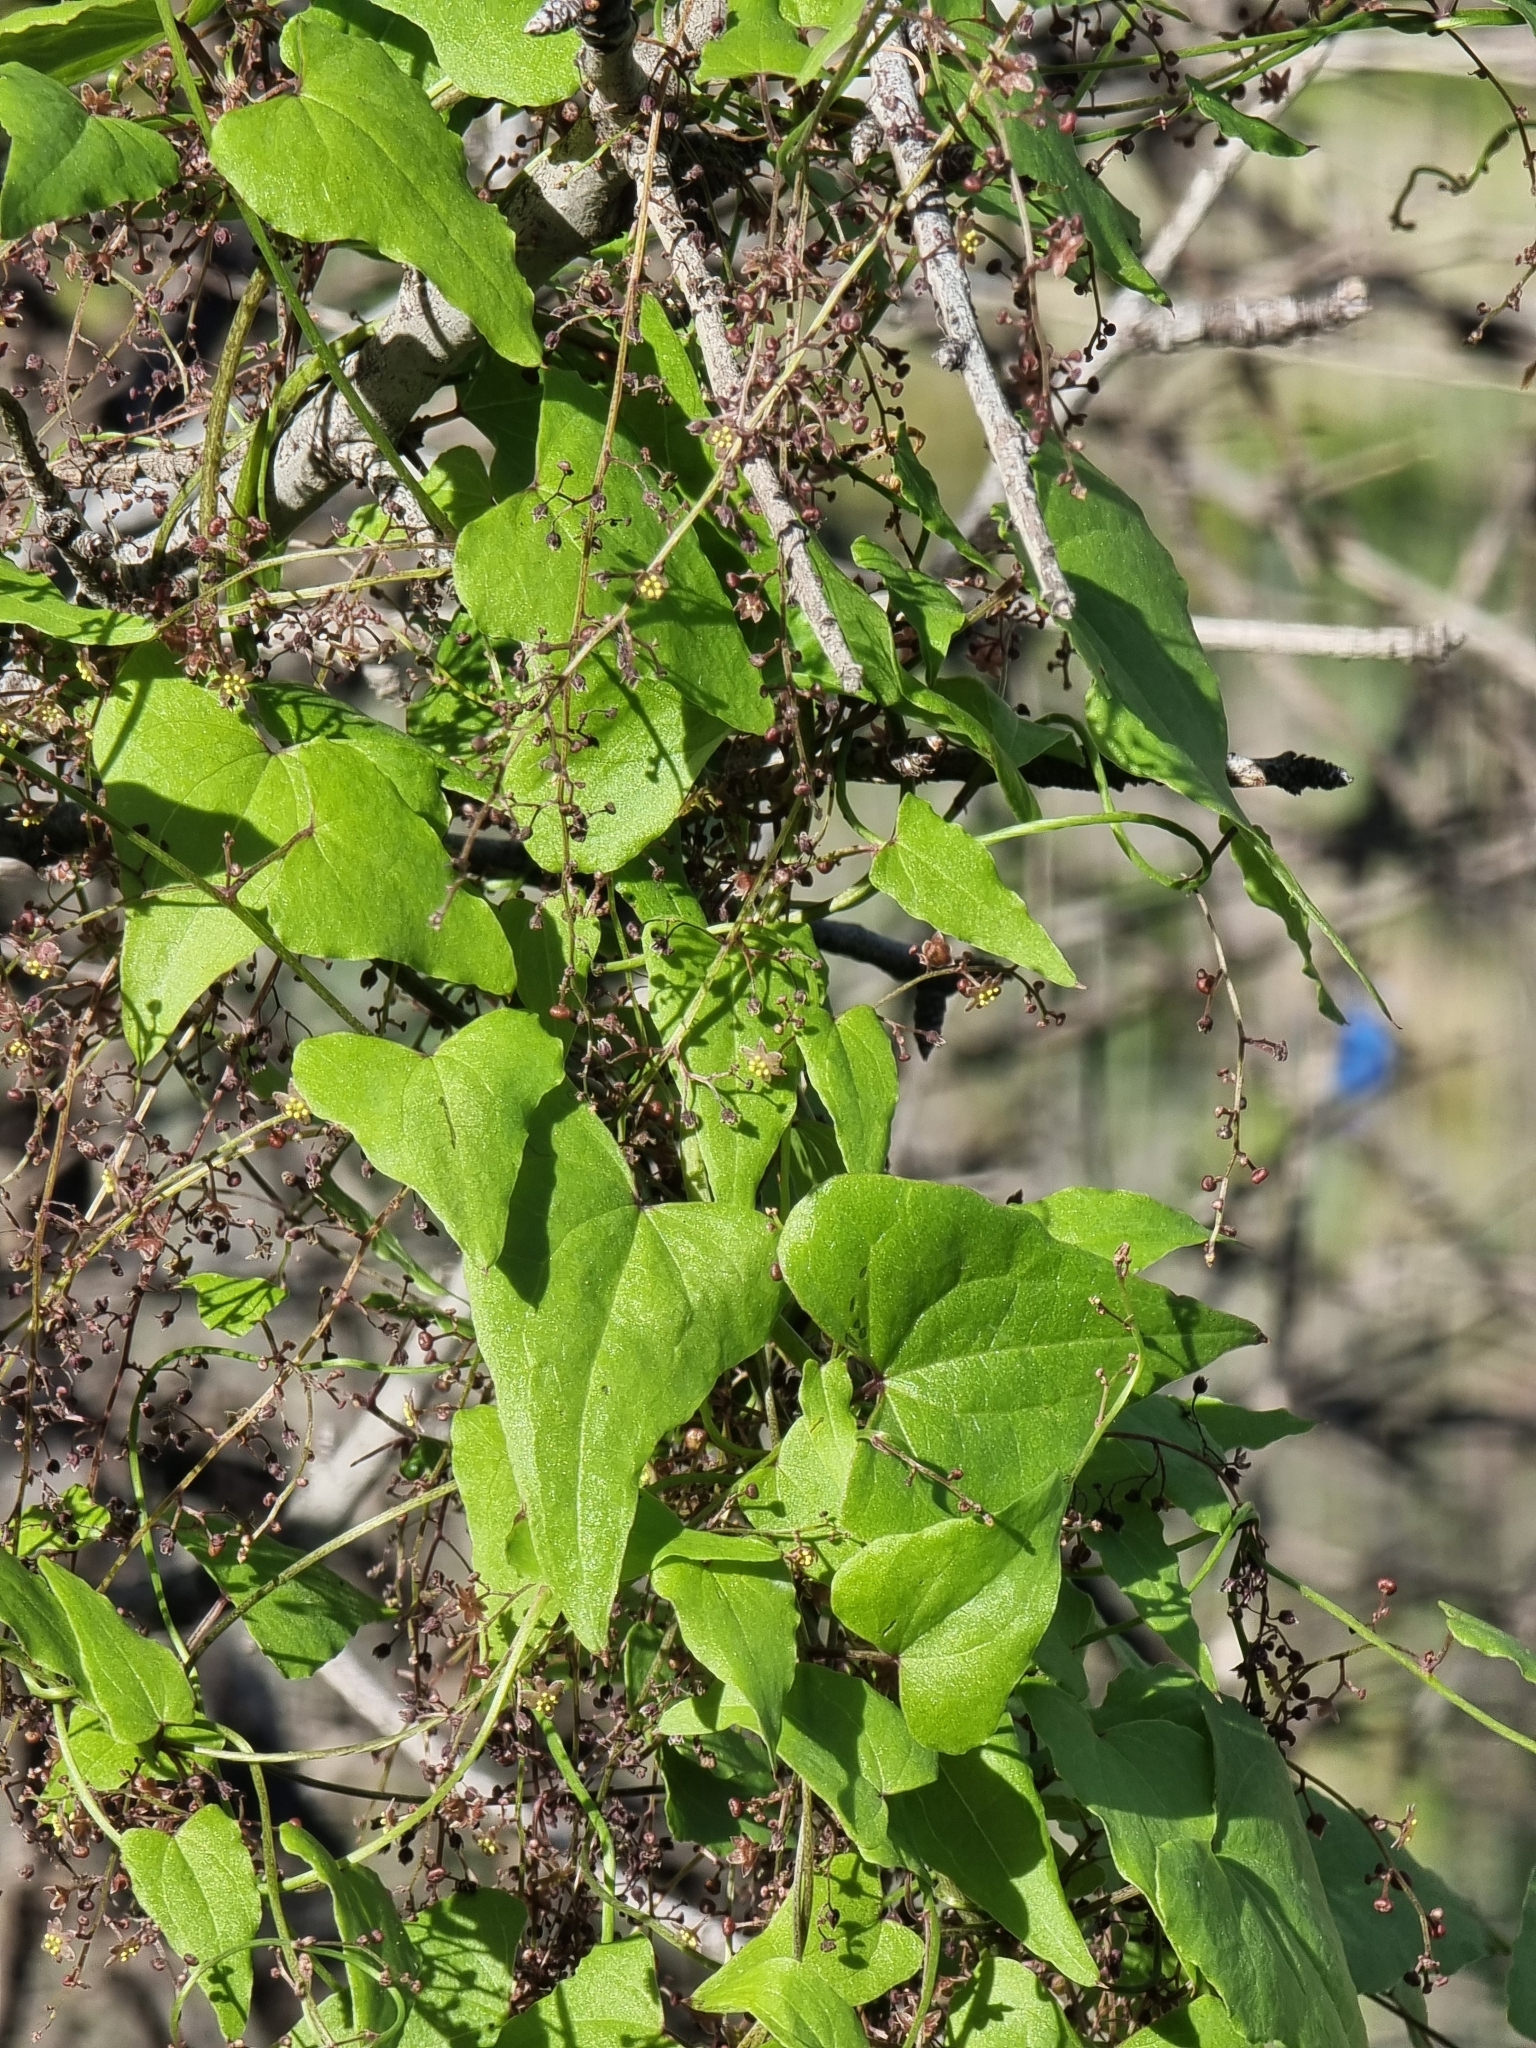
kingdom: Plantae
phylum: Tracheophyta
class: Liliopsida
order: Dioscoreales
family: Dioscoreaceae
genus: Dioscorea
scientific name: Dioscorea communis
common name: Black-bindweed
